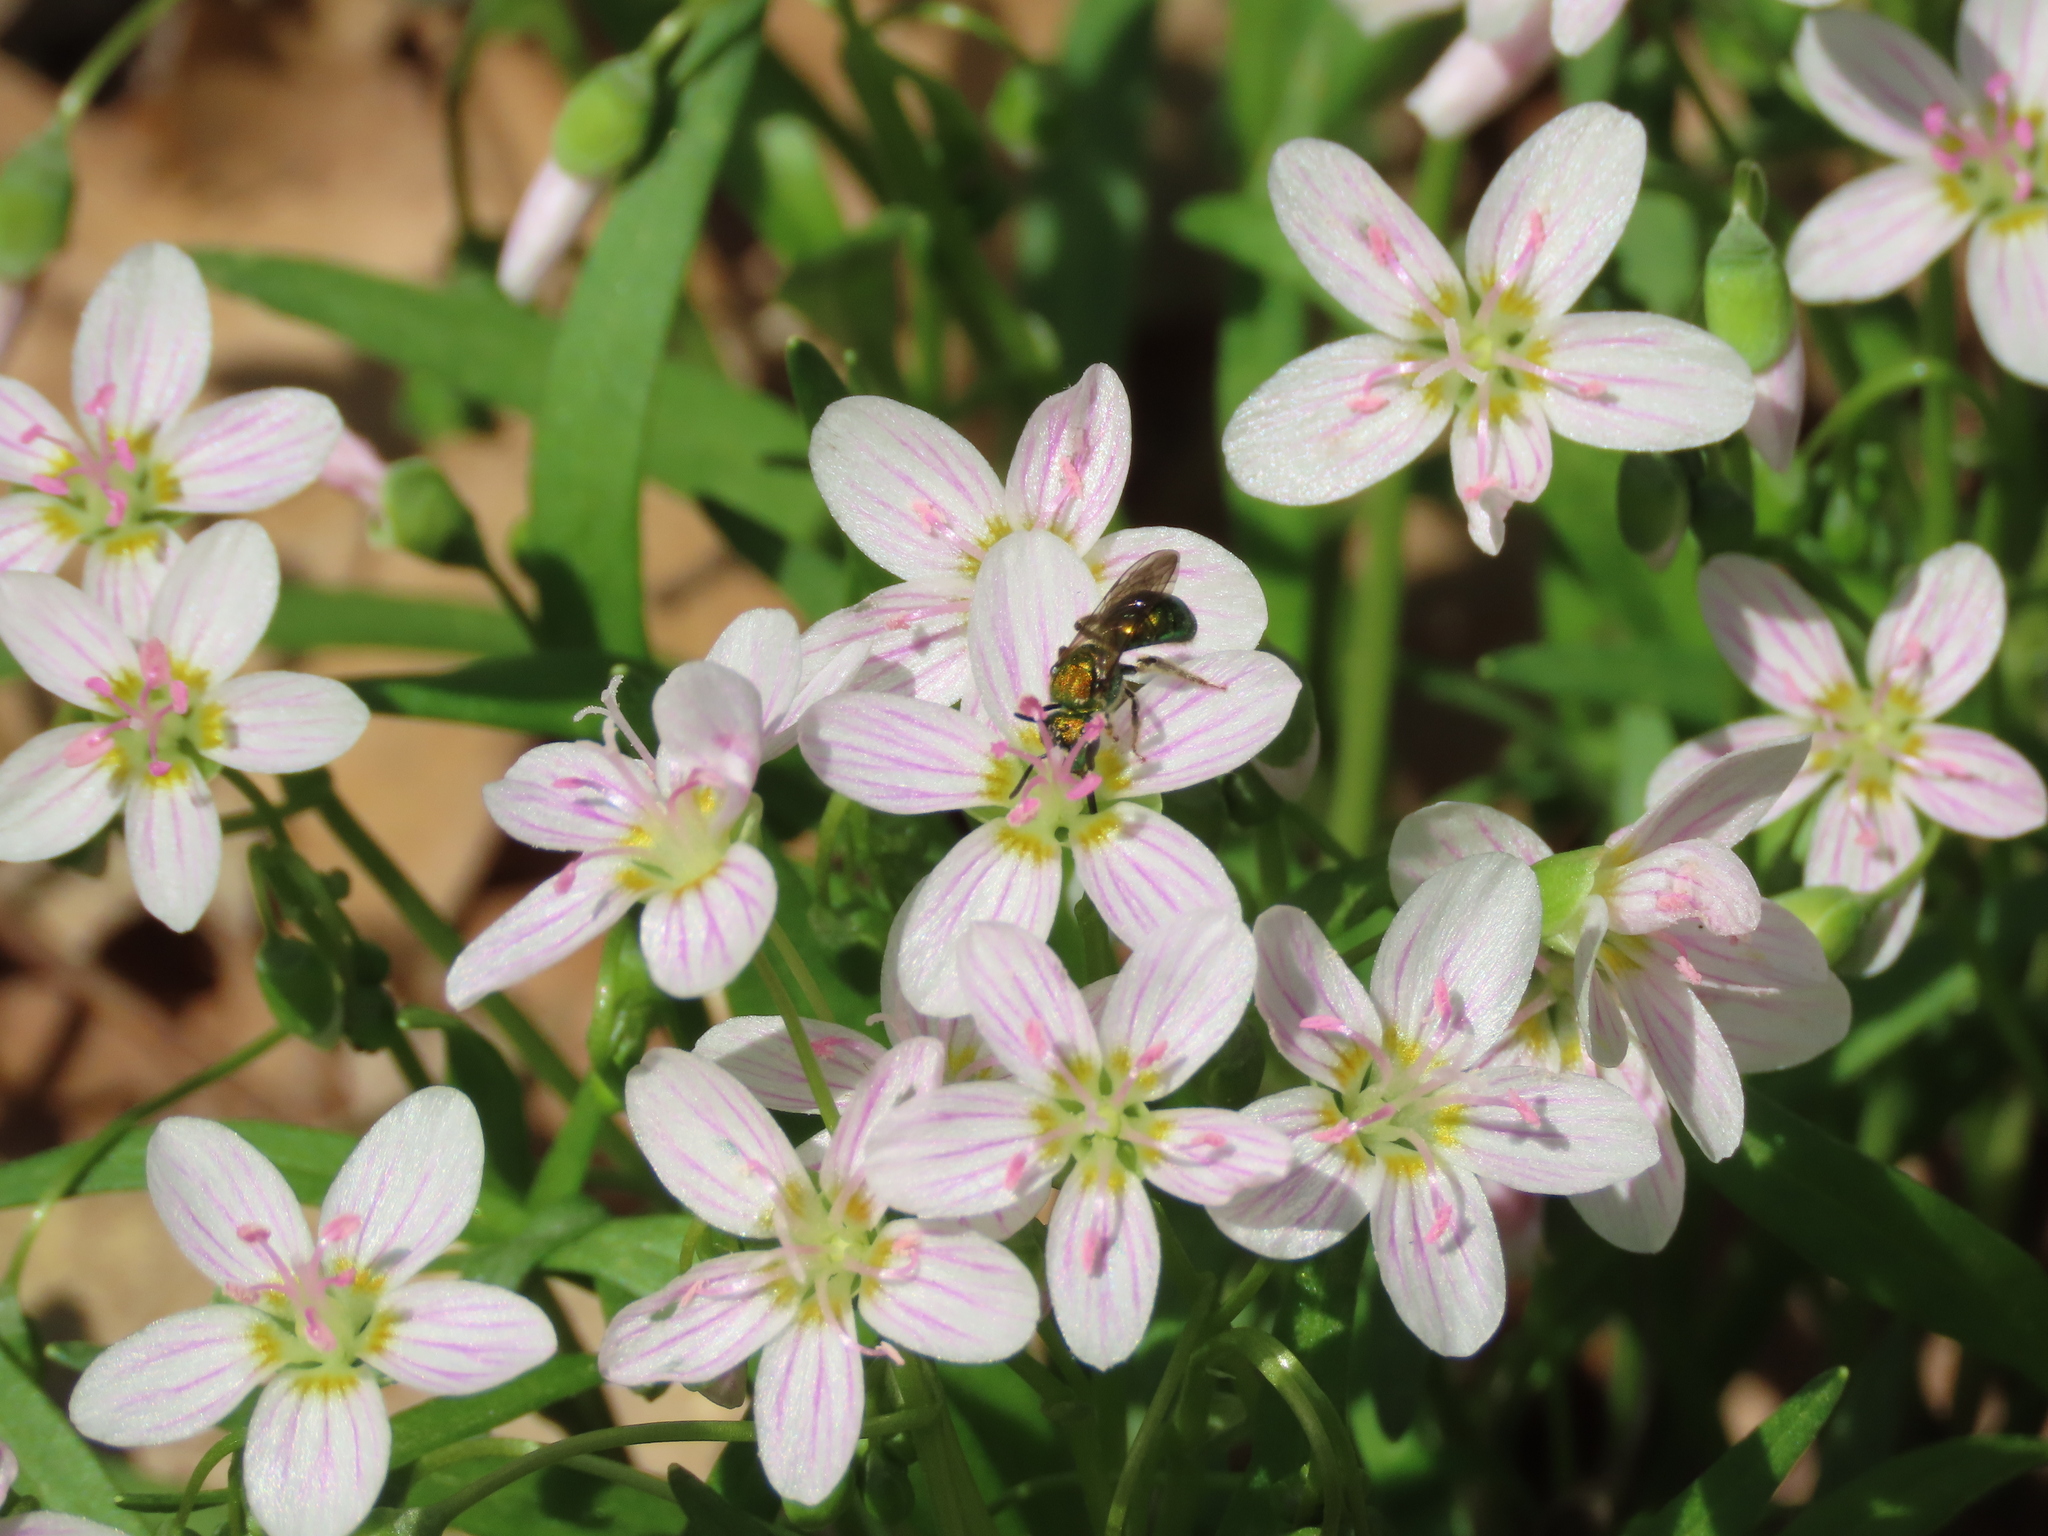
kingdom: Plantae
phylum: Tracheophyta
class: Magnoliopsida
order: Caryophyllales
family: Montiaceae
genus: Claytonia
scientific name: Claytonia virginica
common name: Virginia springbeauty
